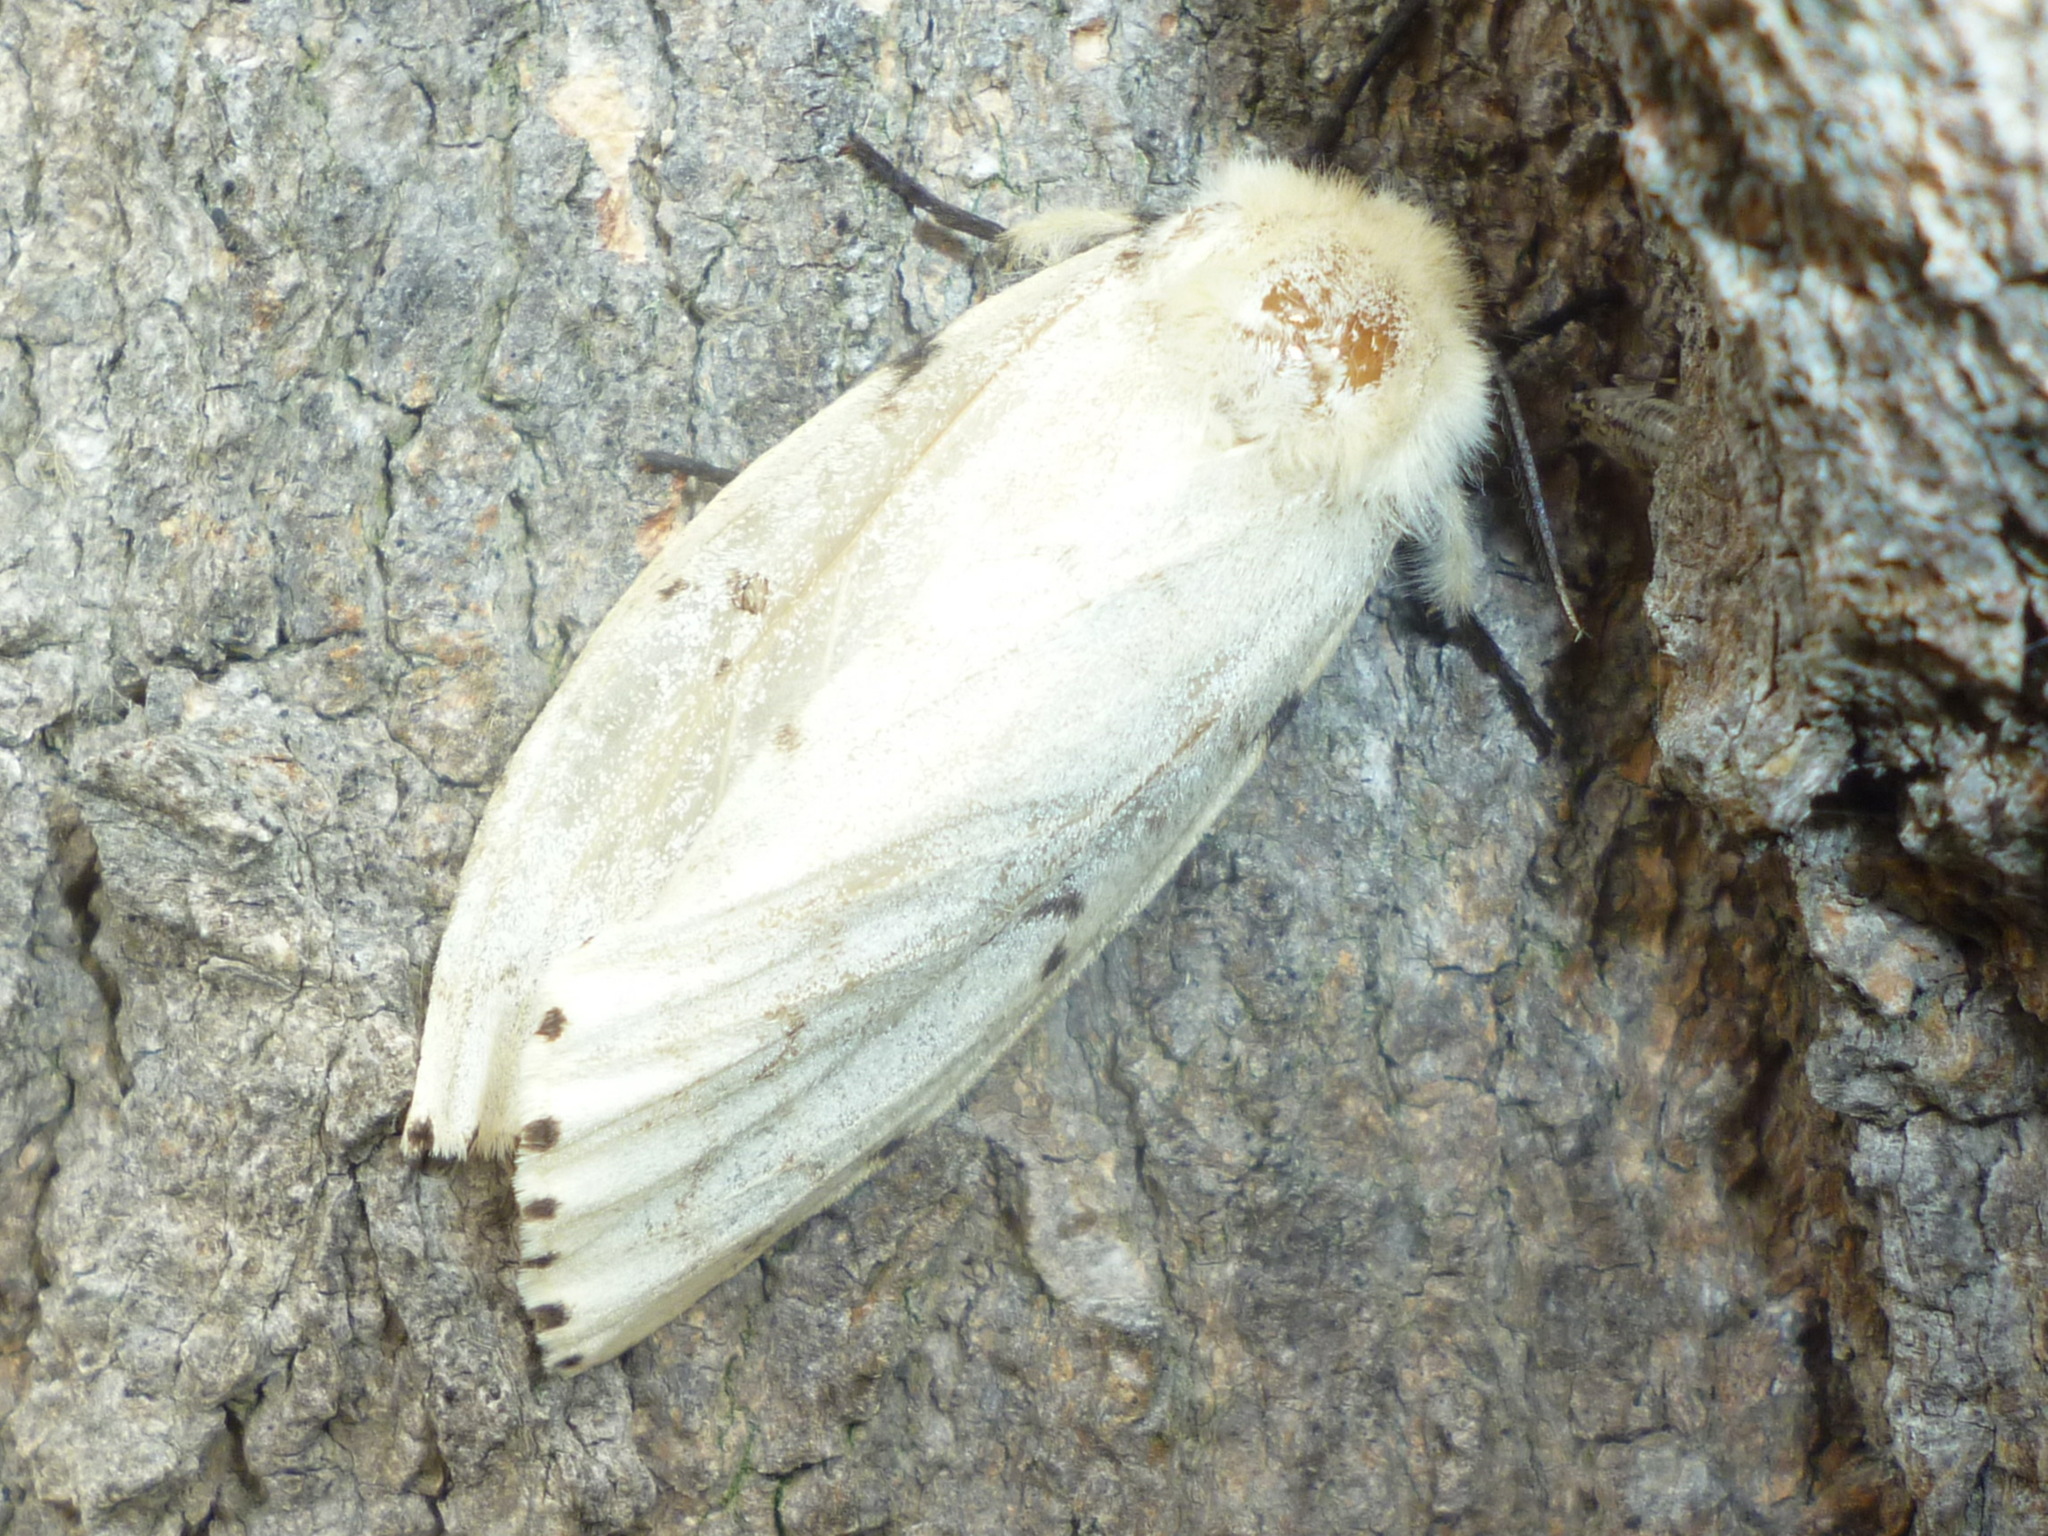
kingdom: Animalia
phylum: Arthropoda
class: Insecta
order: Lepidoptera
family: Erebidae
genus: Lymantria
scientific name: Lymantria dispar
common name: Gypsy moth
